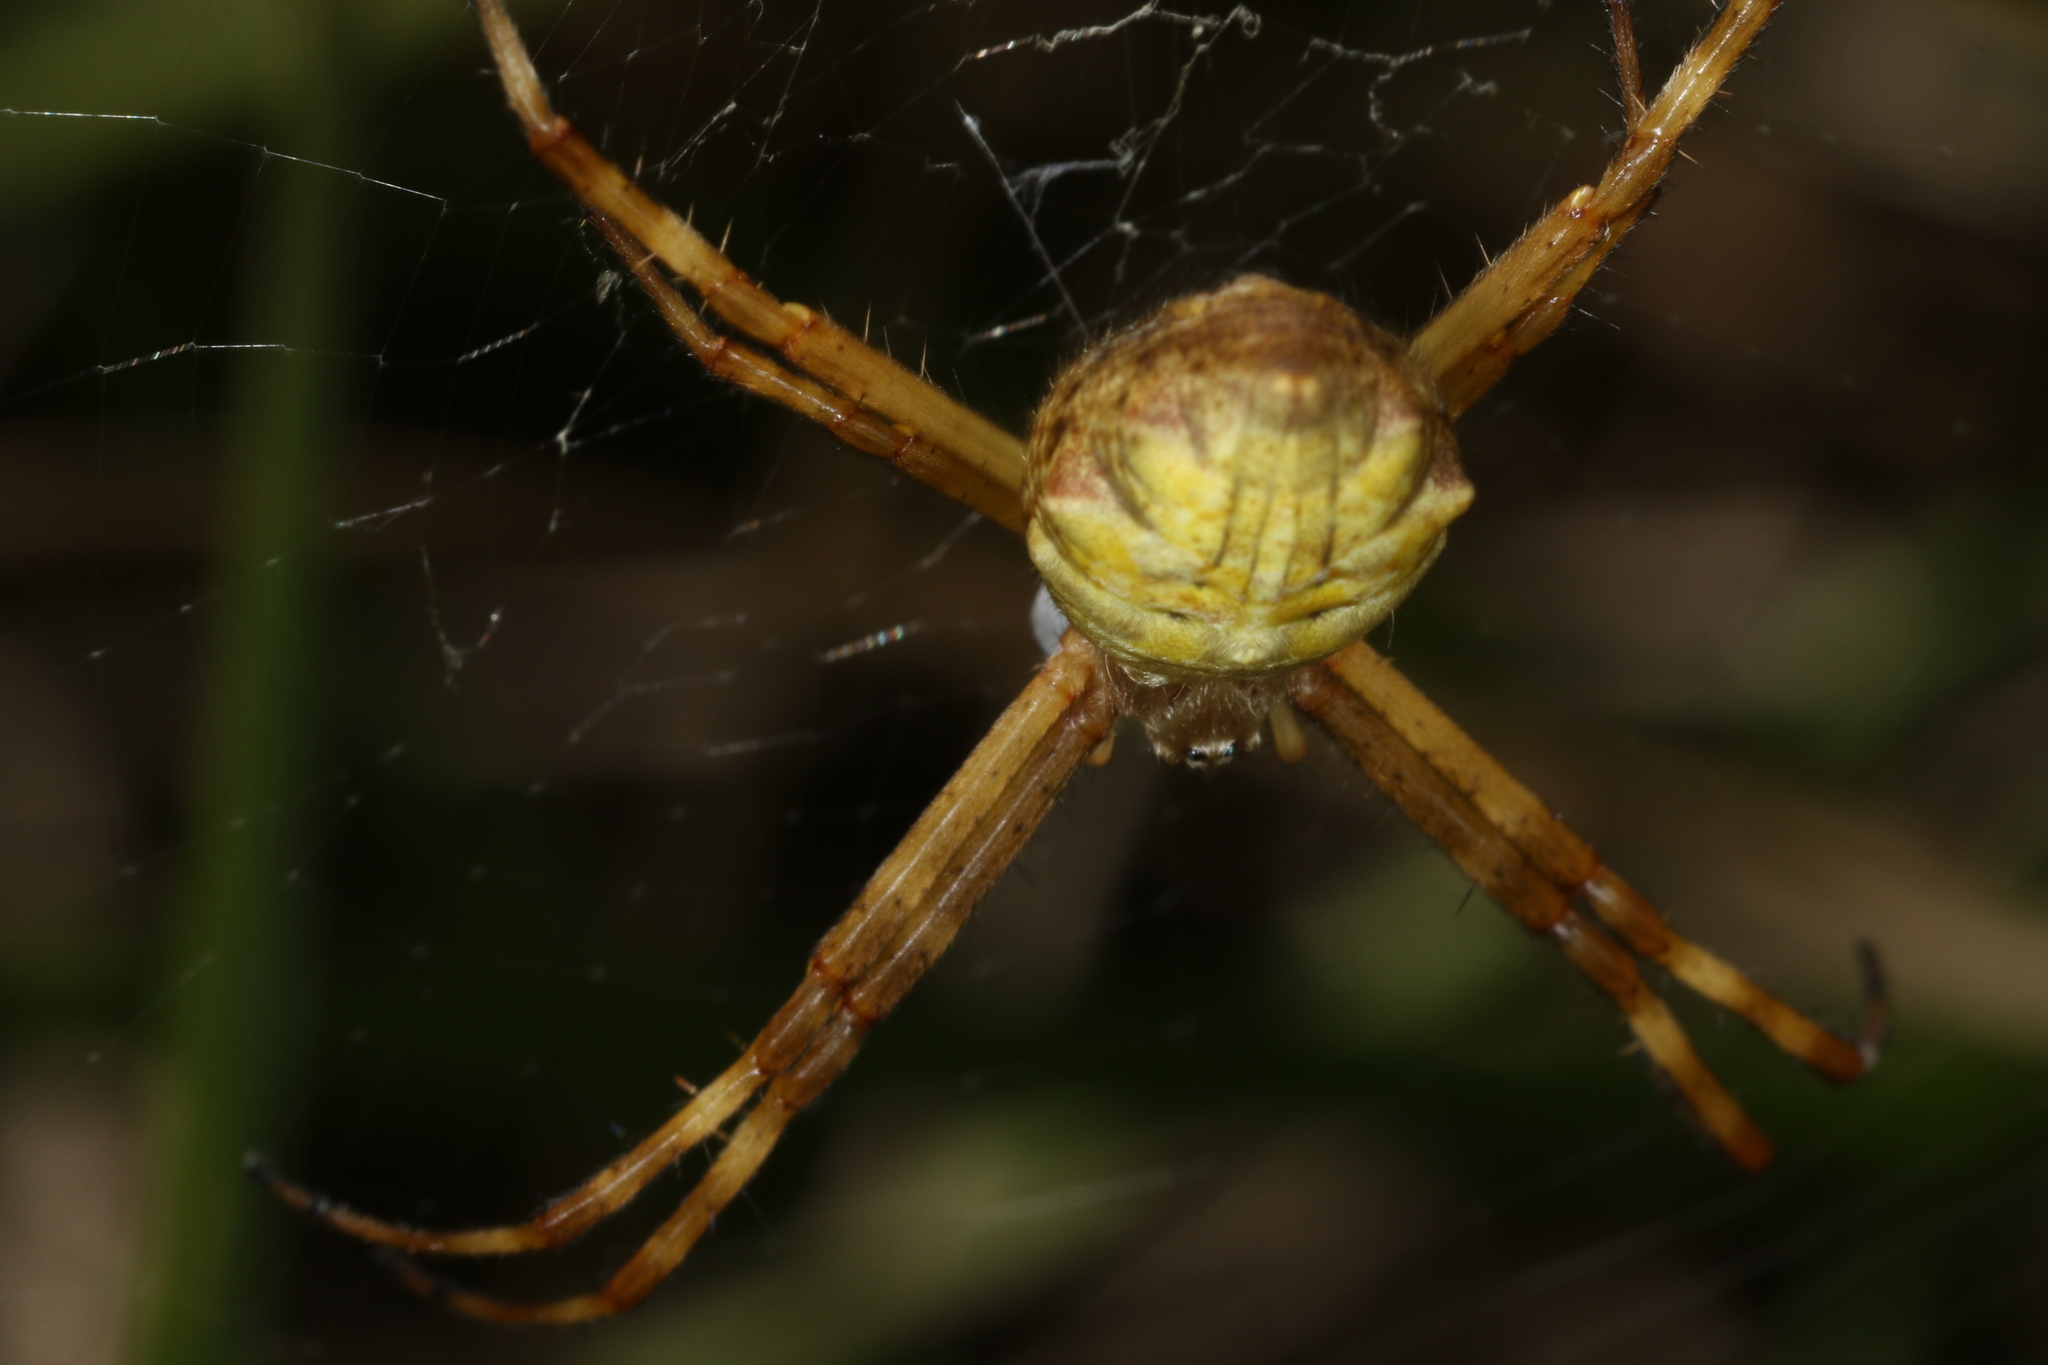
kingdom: Animalia
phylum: Arthropoda
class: Arachnida
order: Araneae
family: Araneidae
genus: Argiope
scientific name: Argiope argentata
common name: Orb weavers
